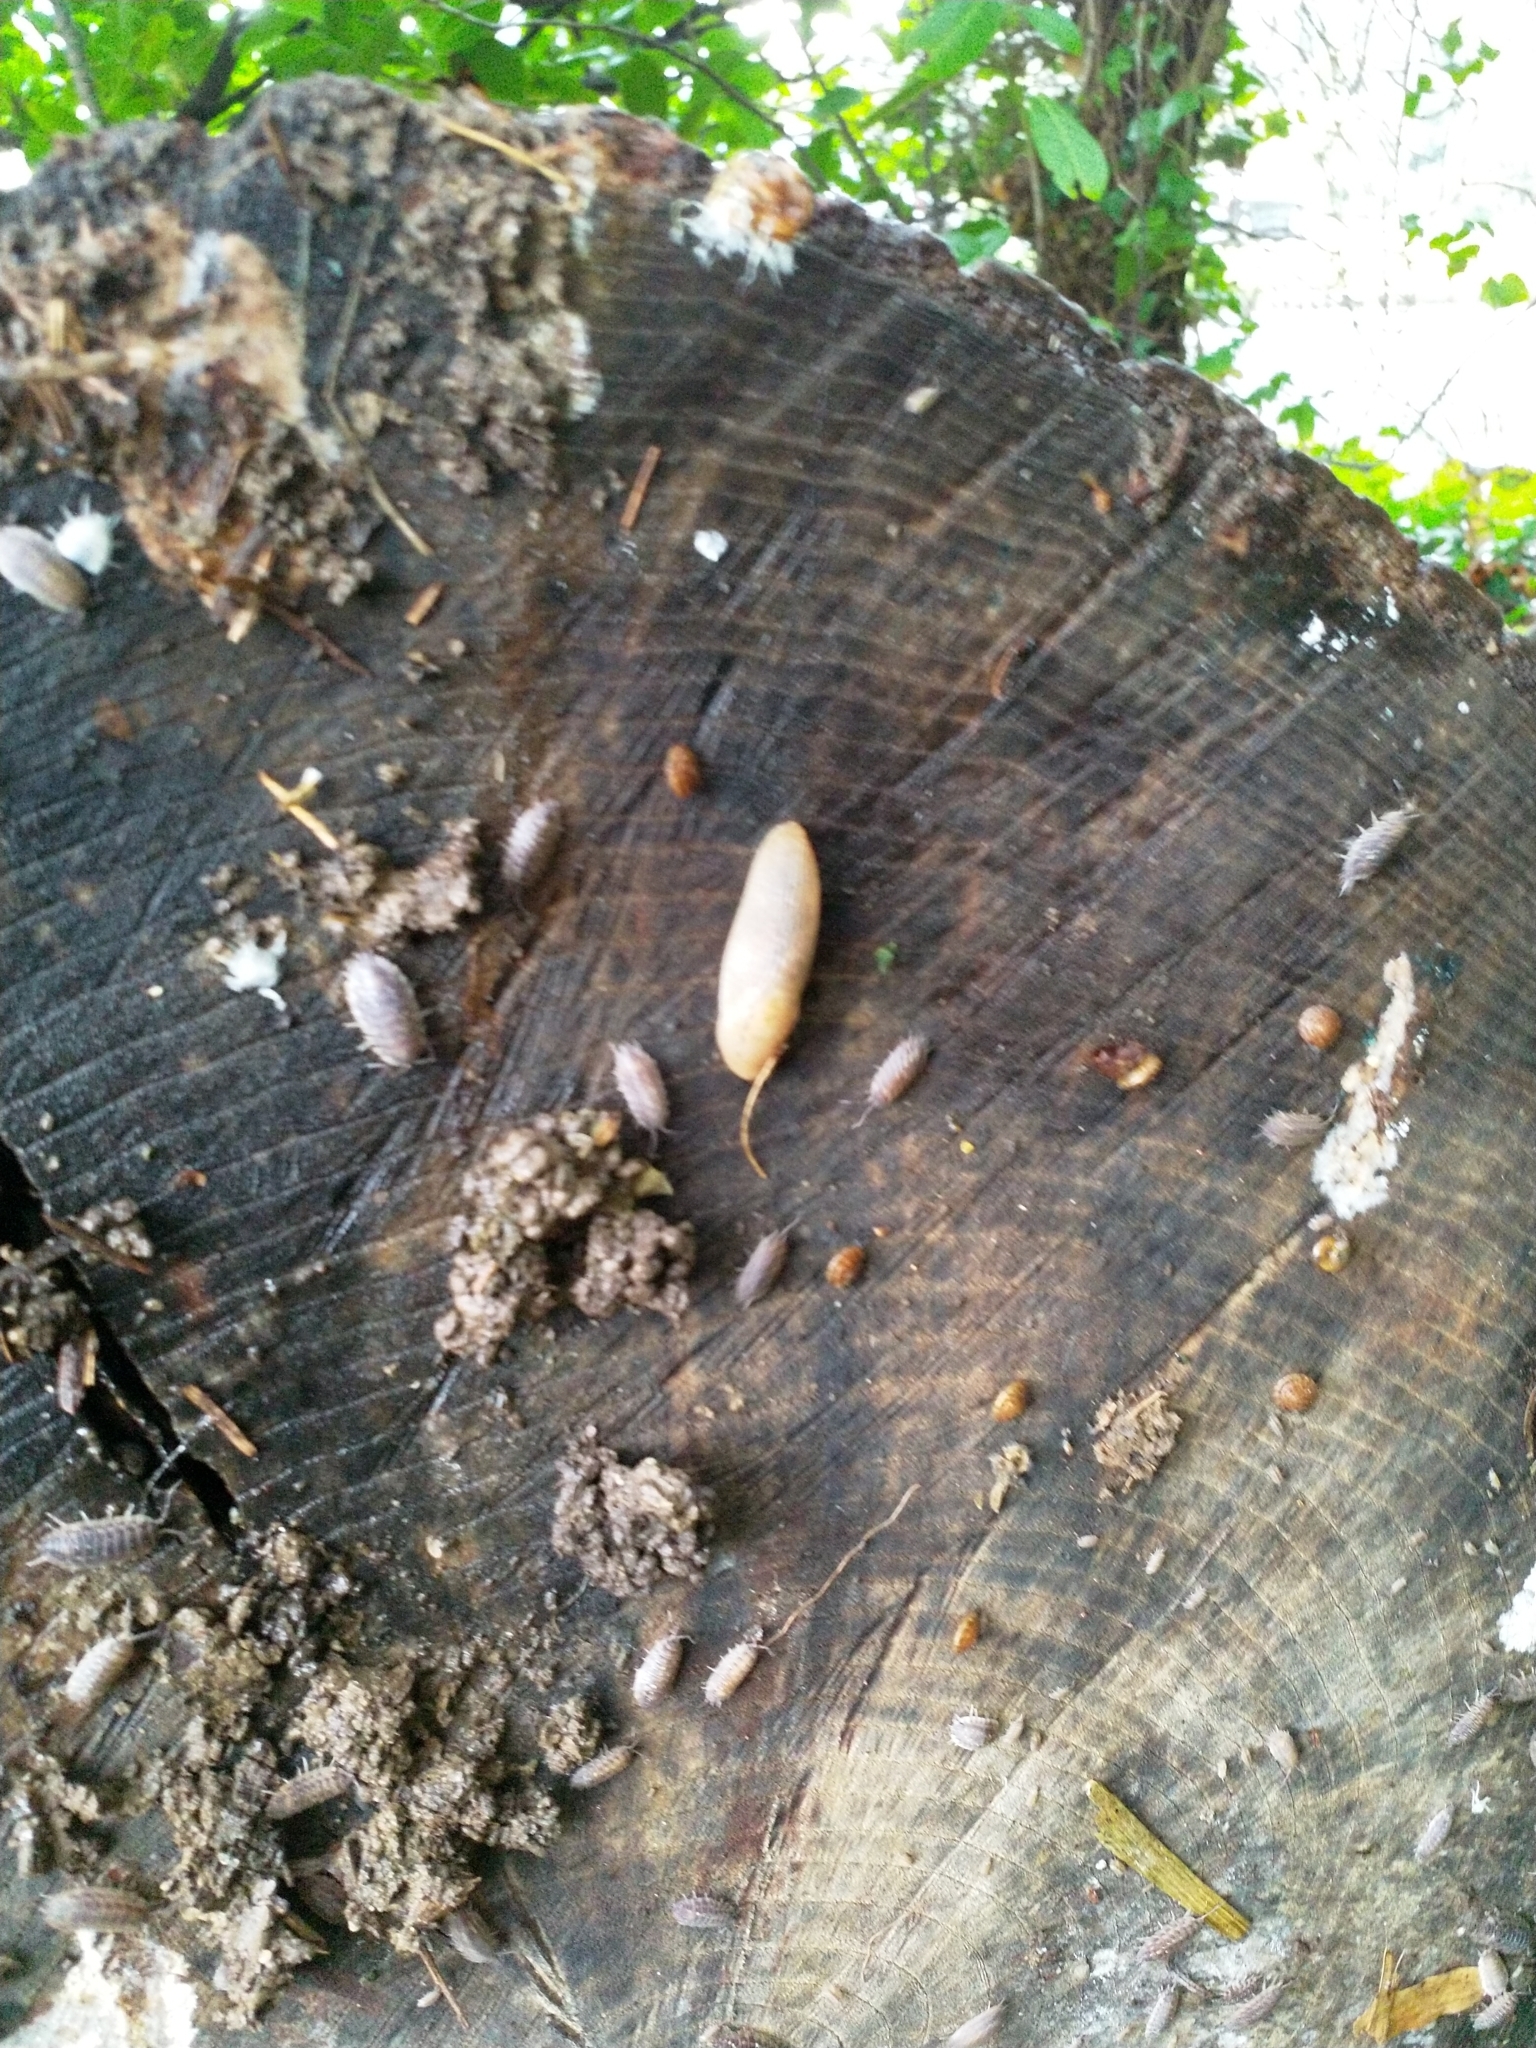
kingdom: Animalia
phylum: Arthropoda
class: Malacostraca
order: Isopoda
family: Oniscidae
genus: Oniscus
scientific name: Oniscus asellus
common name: Common shiny woodlouse
